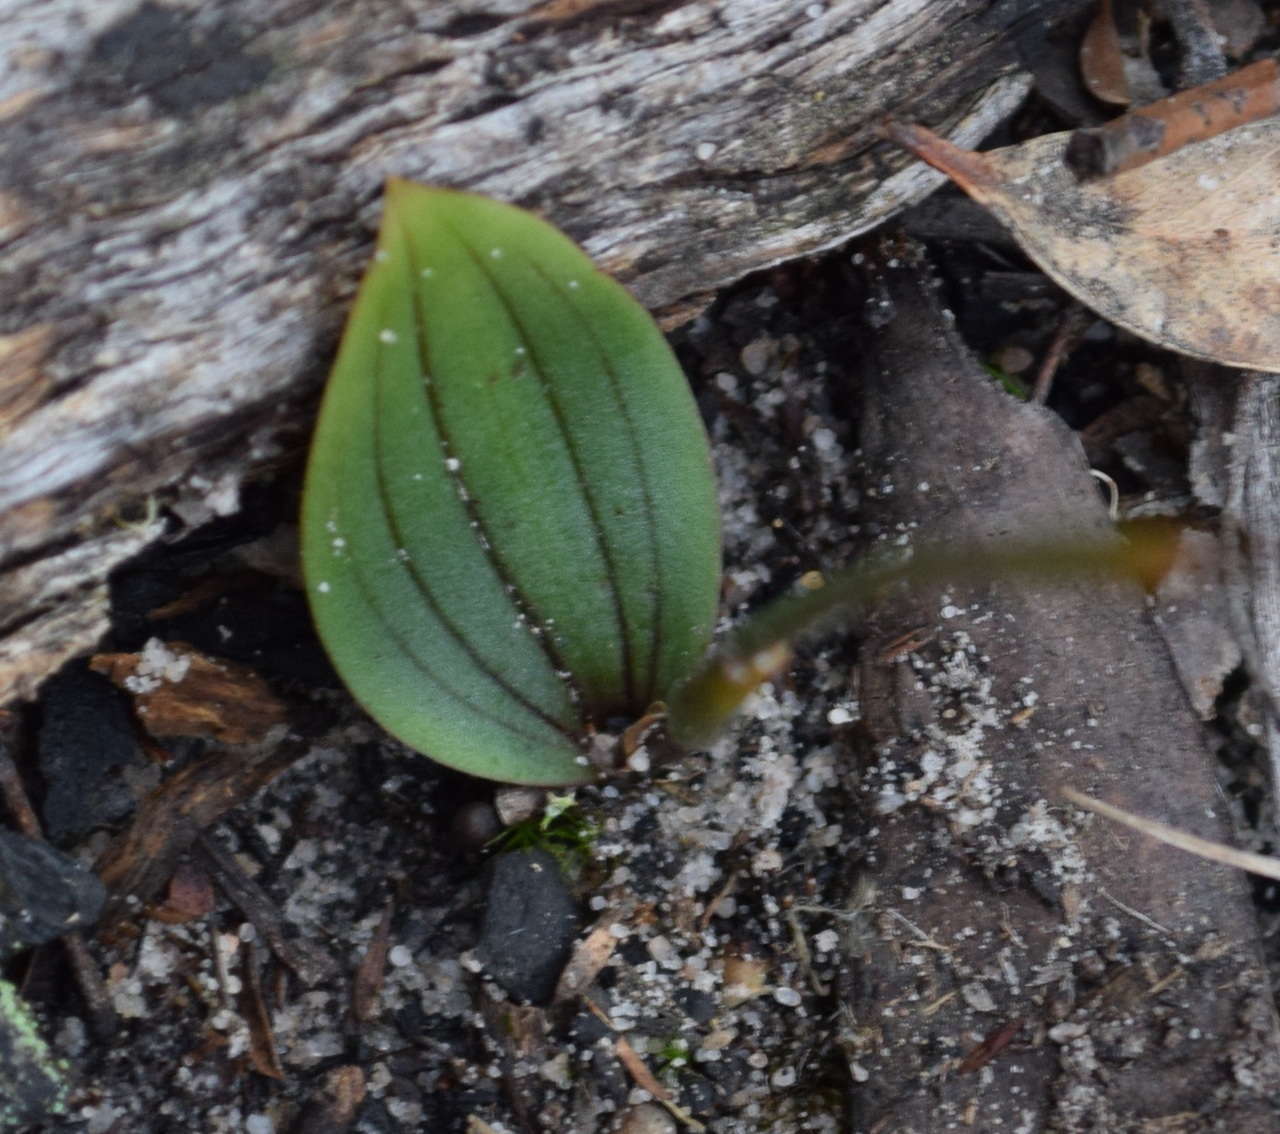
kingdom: Plantae
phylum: Tracheophyta
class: Liliopsida
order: Asparagales
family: Orchidaceae
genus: Leporella
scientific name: Leporella fimbriata
